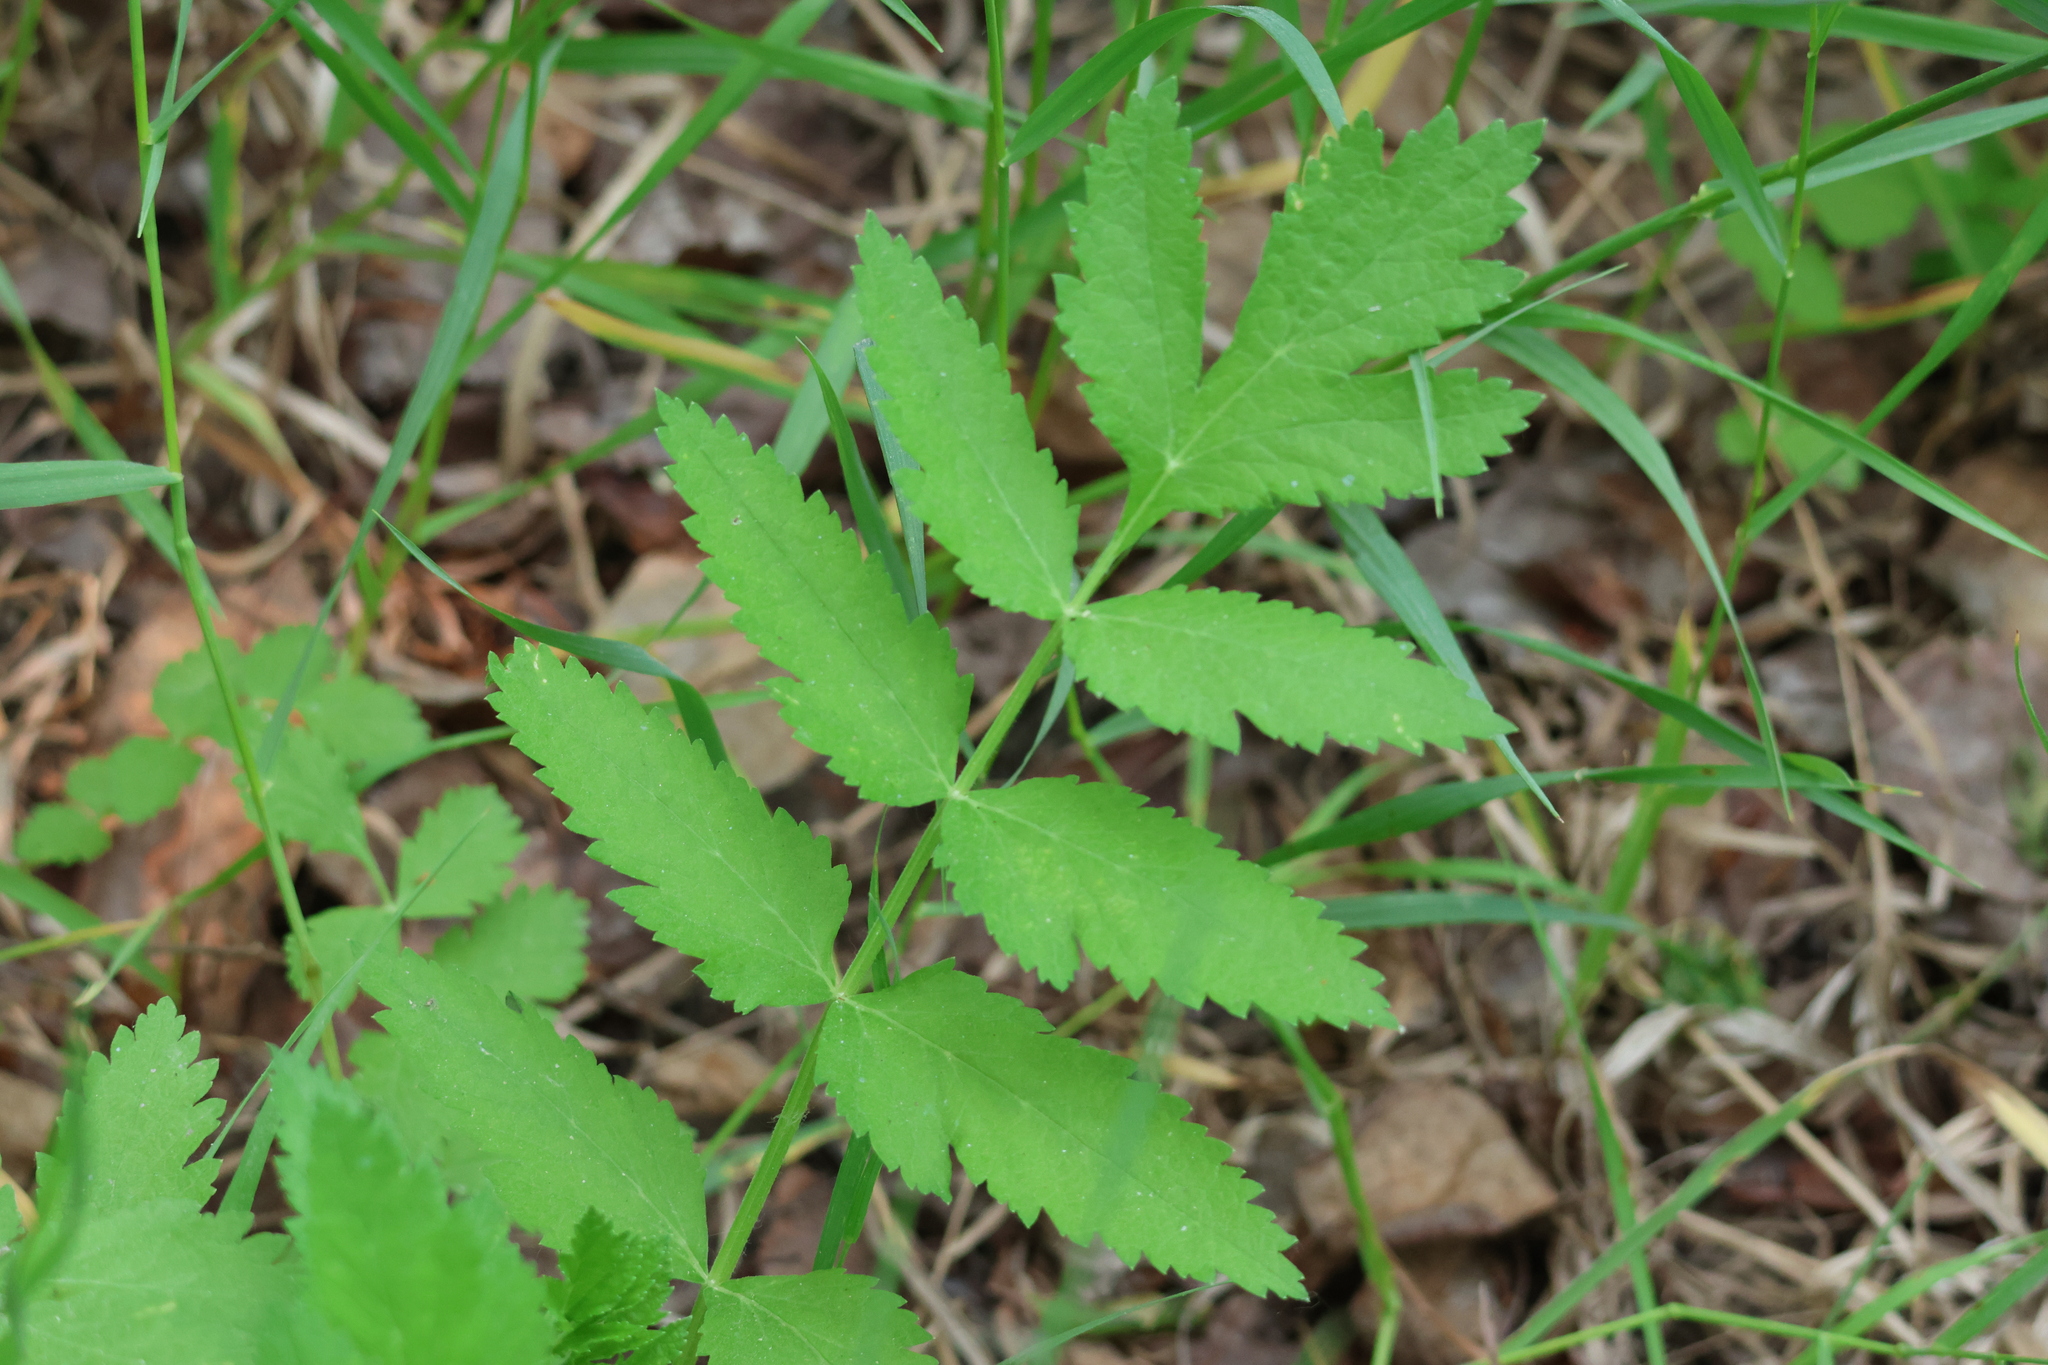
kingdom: Plantae
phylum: Tracheophyta
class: Magnoliopsida
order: Apiales
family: Apiaceae
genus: Pastinaca
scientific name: Pastinaca sativa
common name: Wild parsnip
